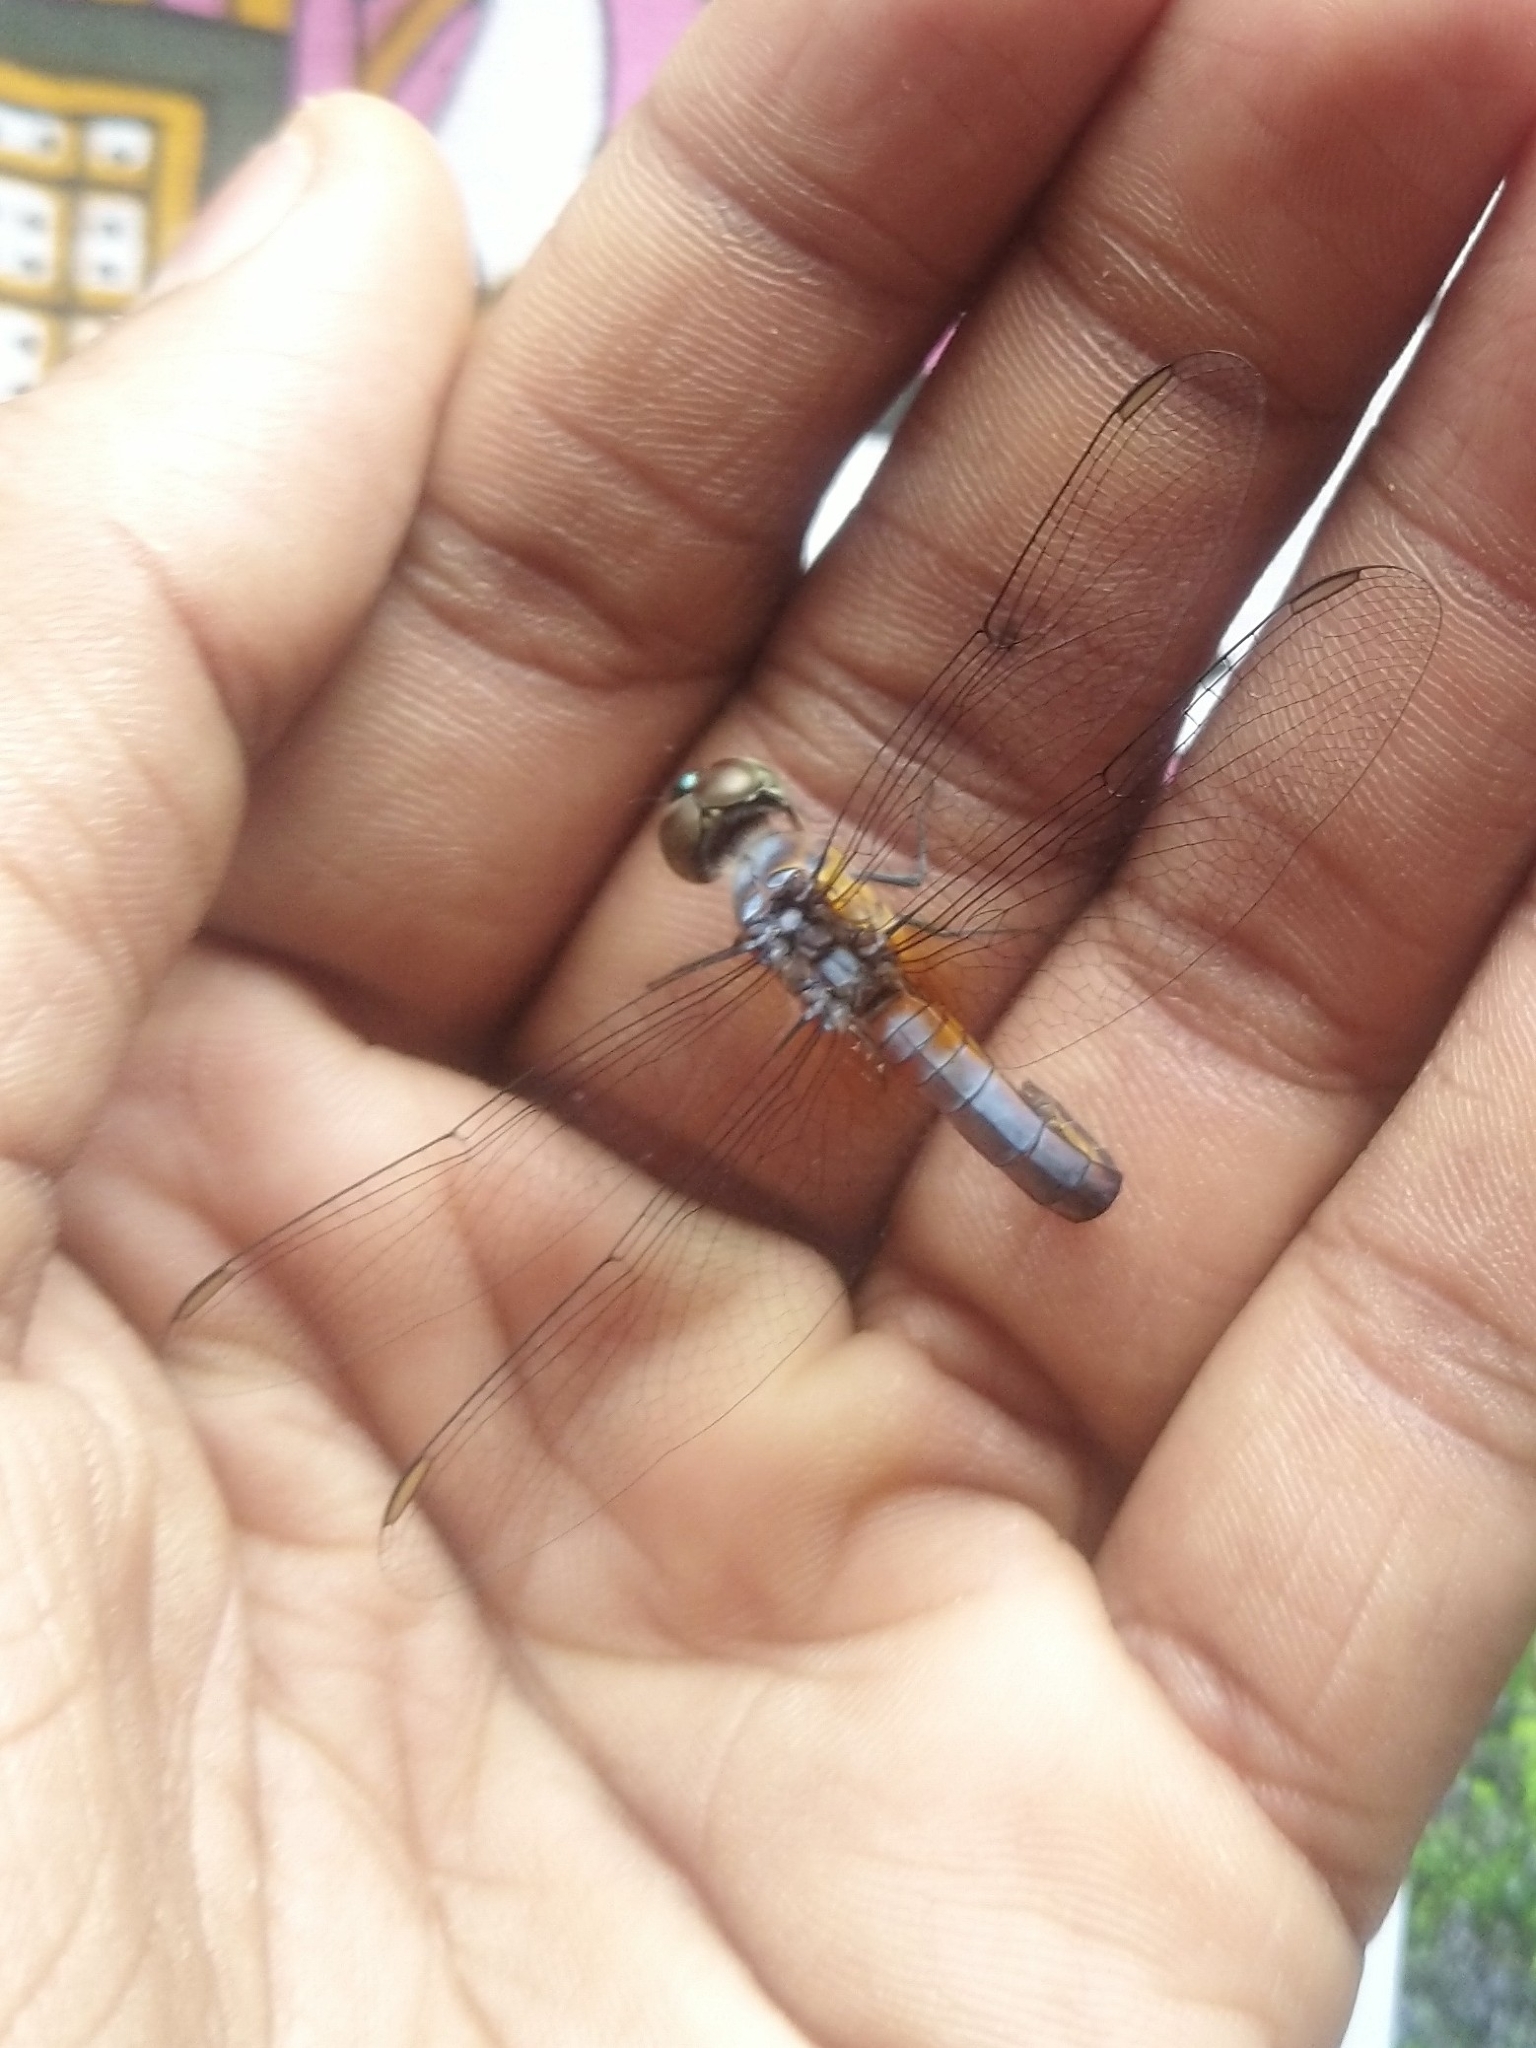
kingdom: Animalia
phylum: Arthropoda
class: Insecta
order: Odonata
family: Libellulidae
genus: Brachydiplax
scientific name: Brachydiplax chalybea
